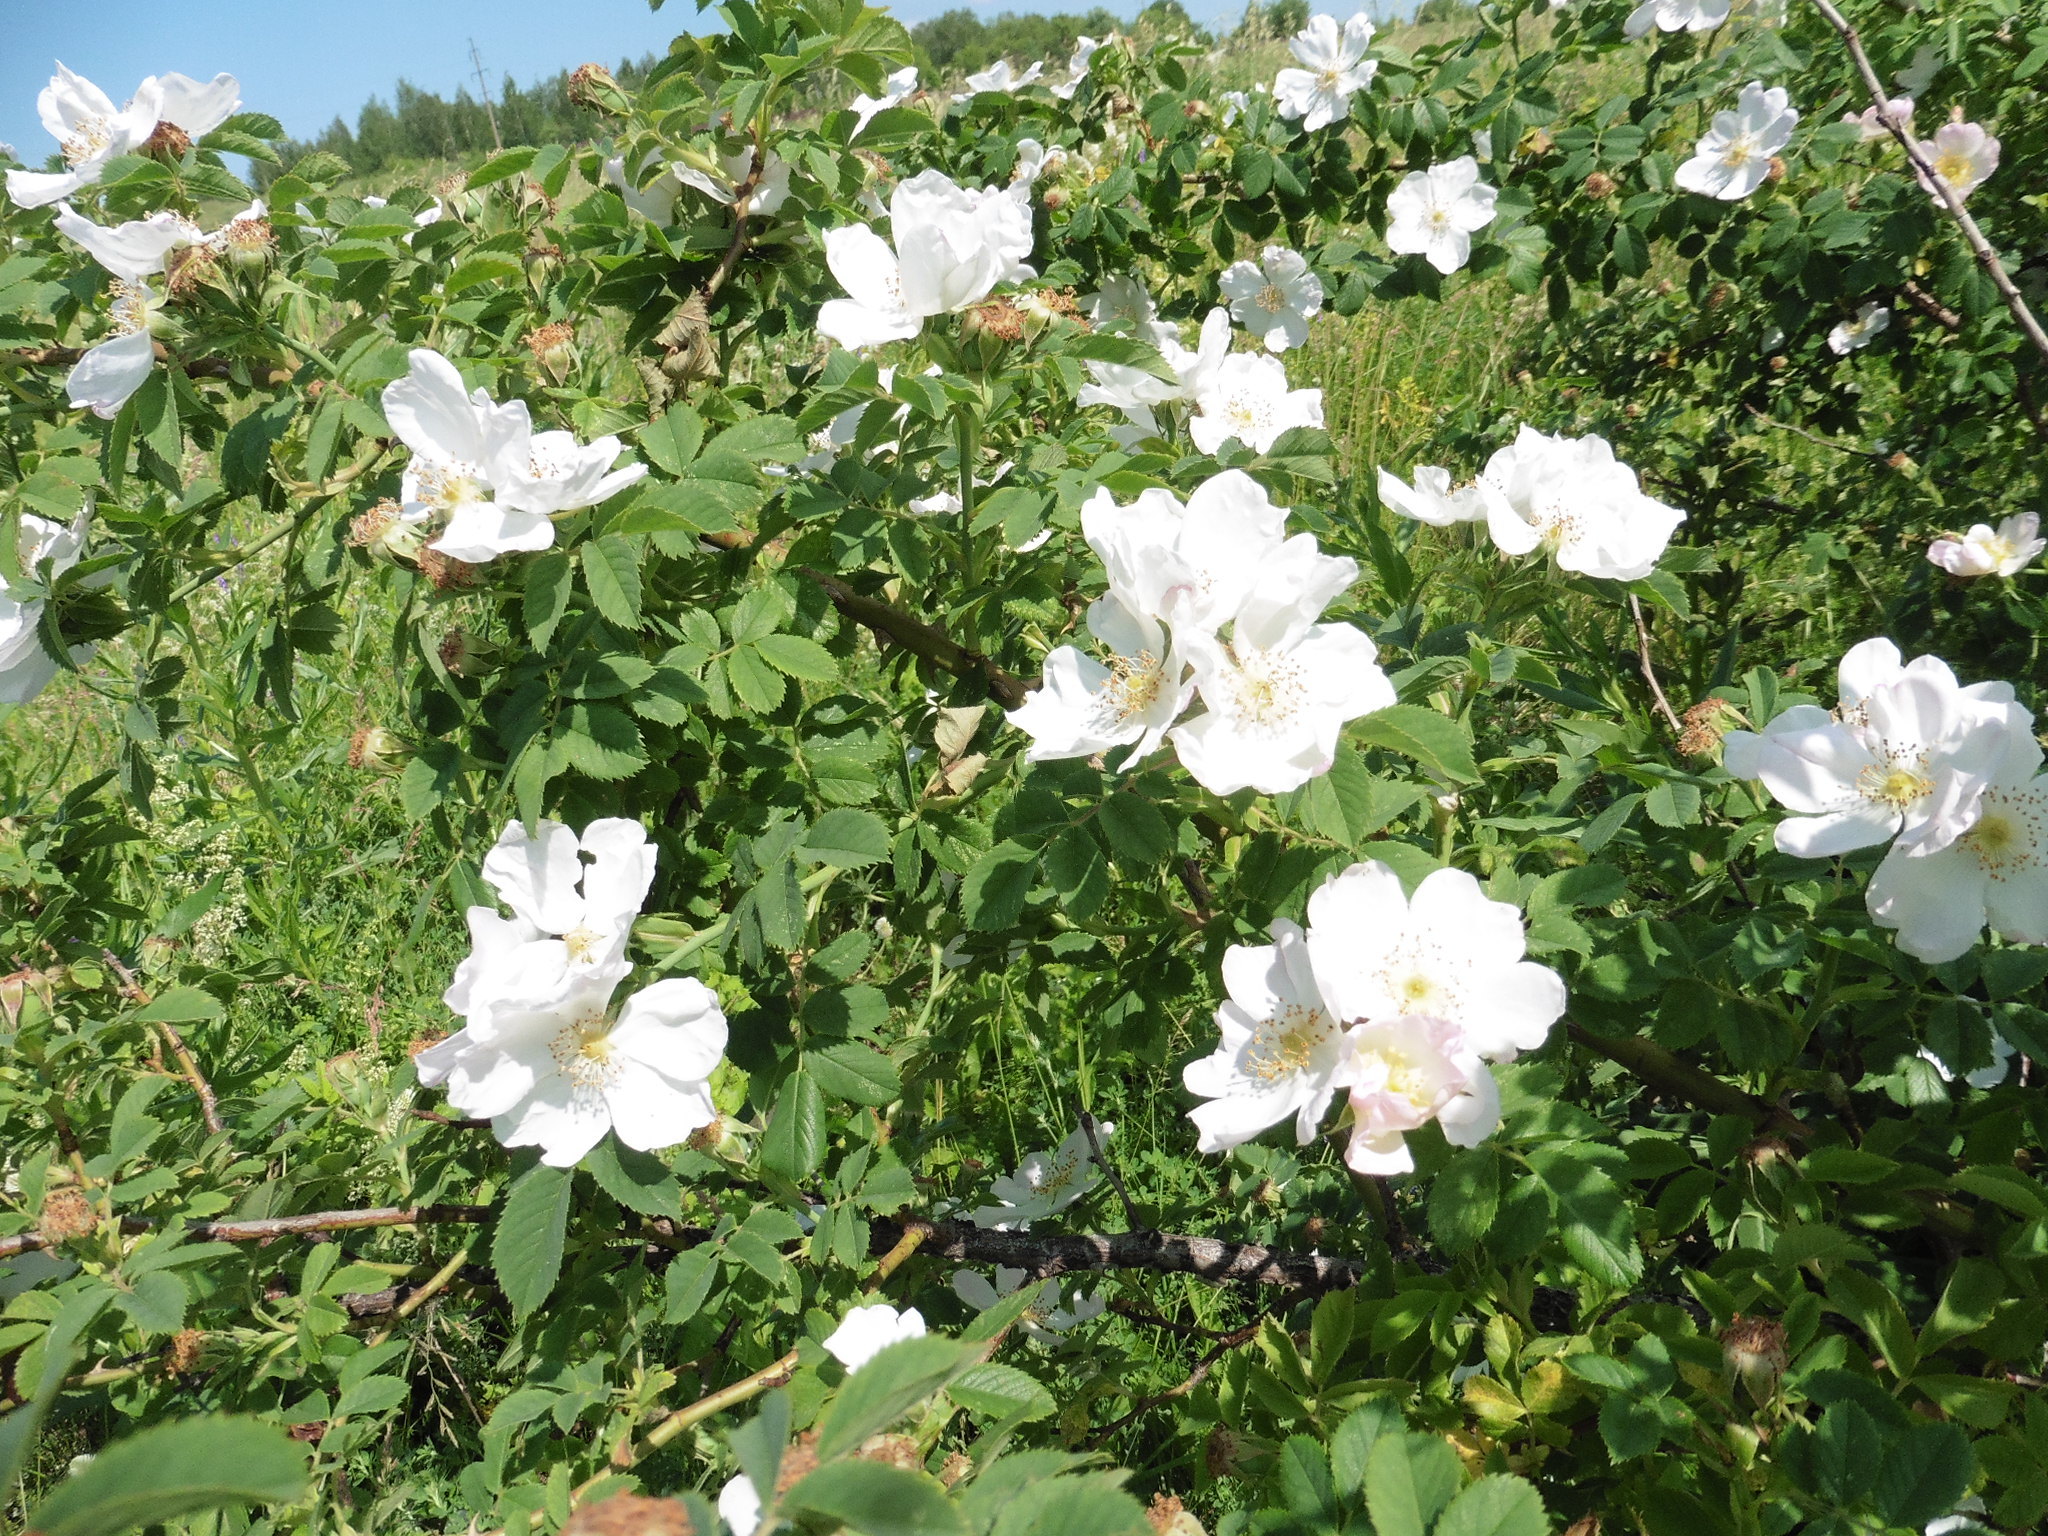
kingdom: Plantae
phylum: Tracheophyta
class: Magnoliopsida
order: Rosales
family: Rosaceae
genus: Rosa
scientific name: Rosa
